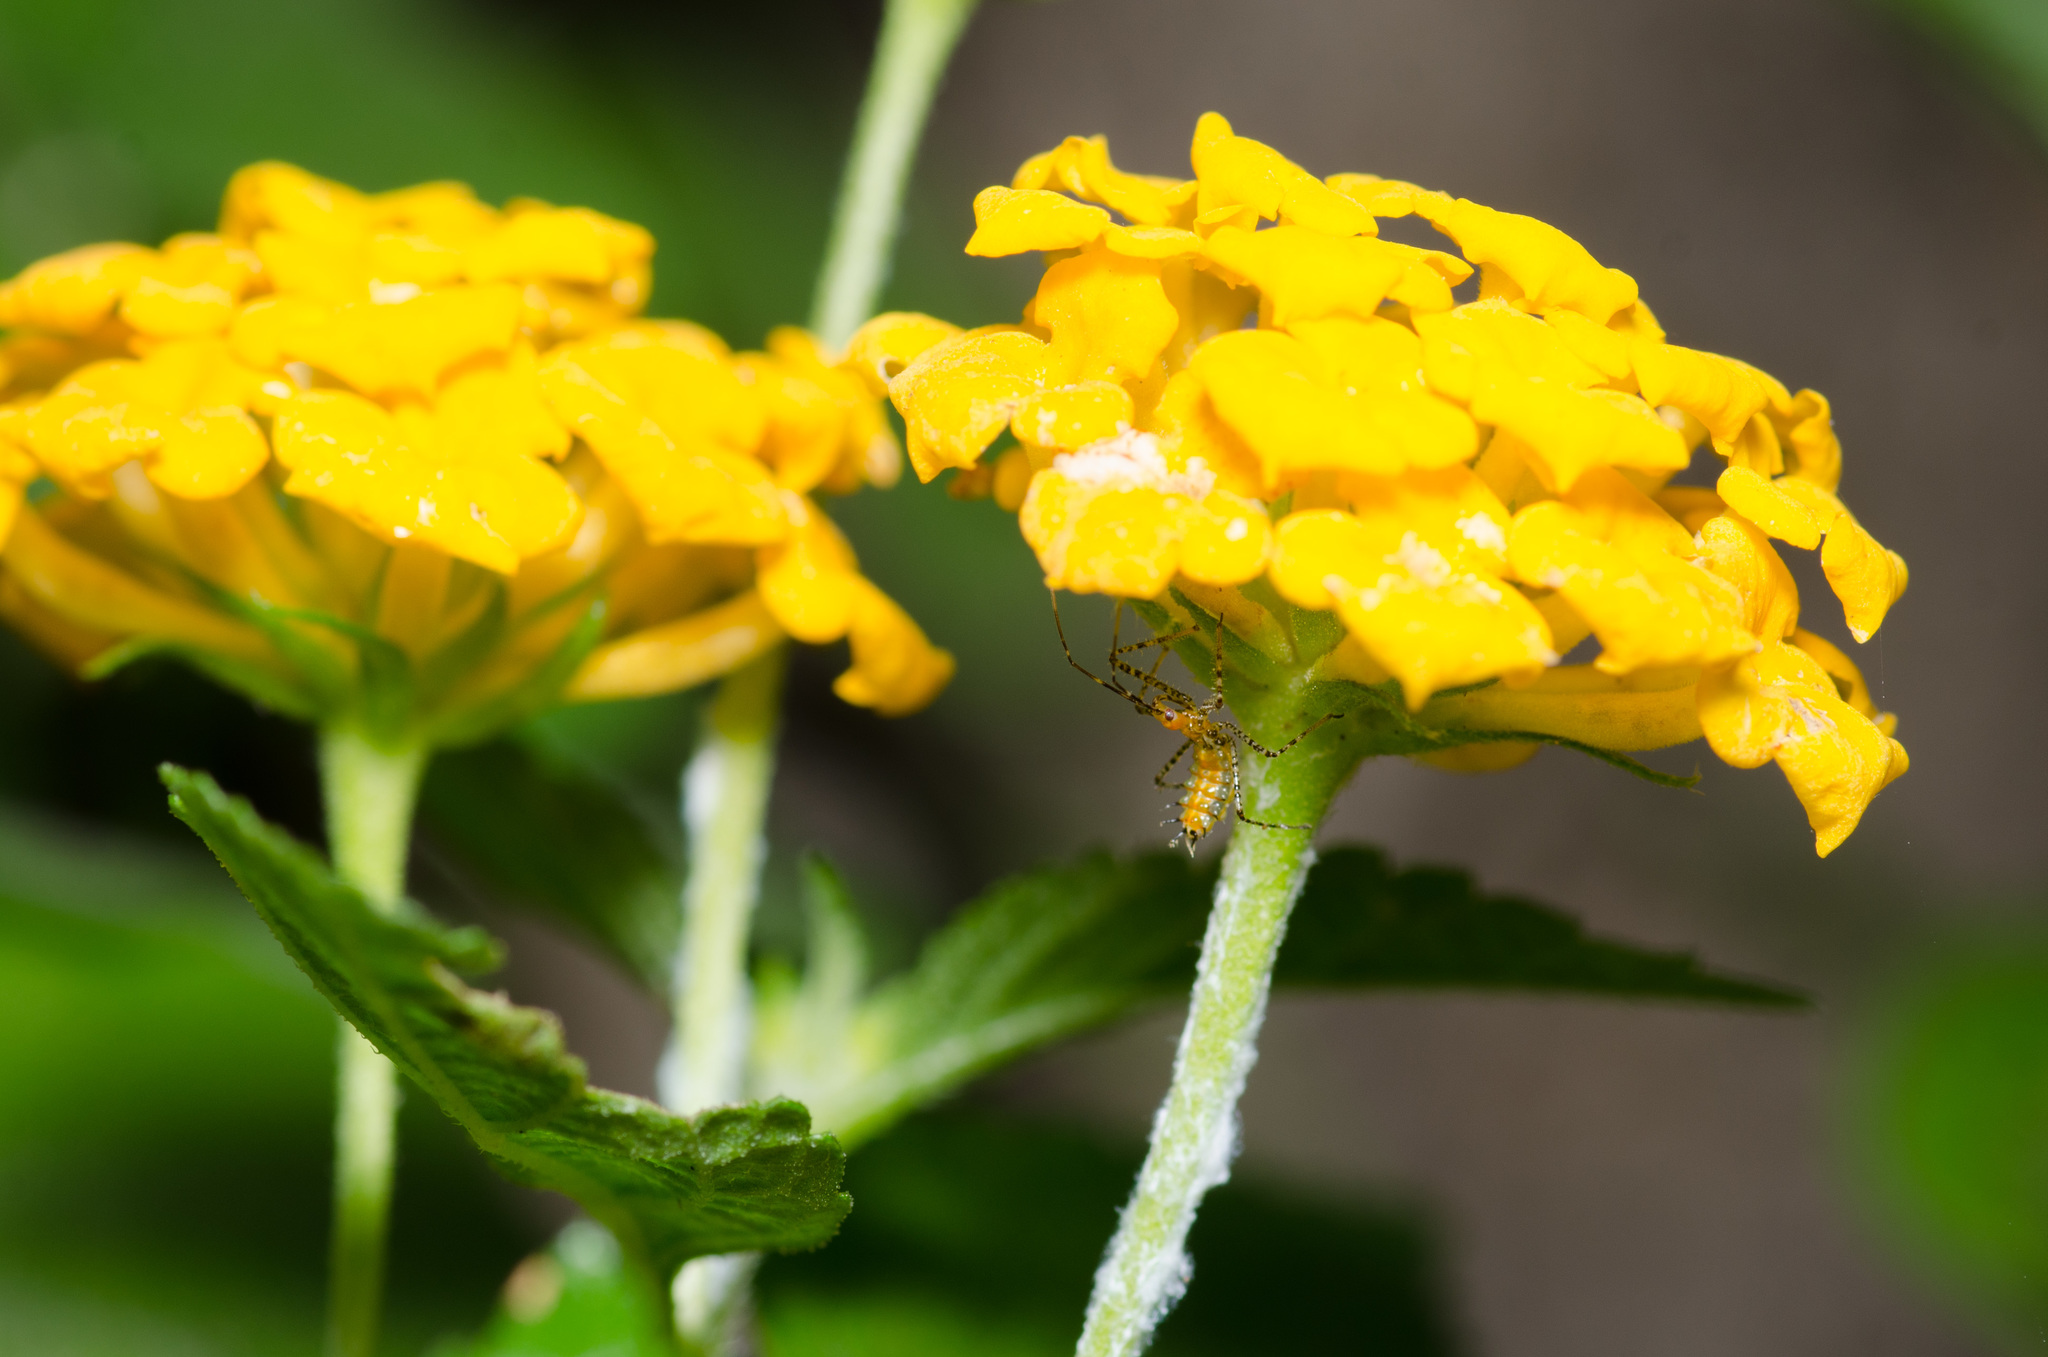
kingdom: Animalia
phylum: Arthropoda
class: Insecta
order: Hemiptera
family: Reduviidae
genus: Zelus
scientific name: Zelus renardii
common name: Assassin bug
